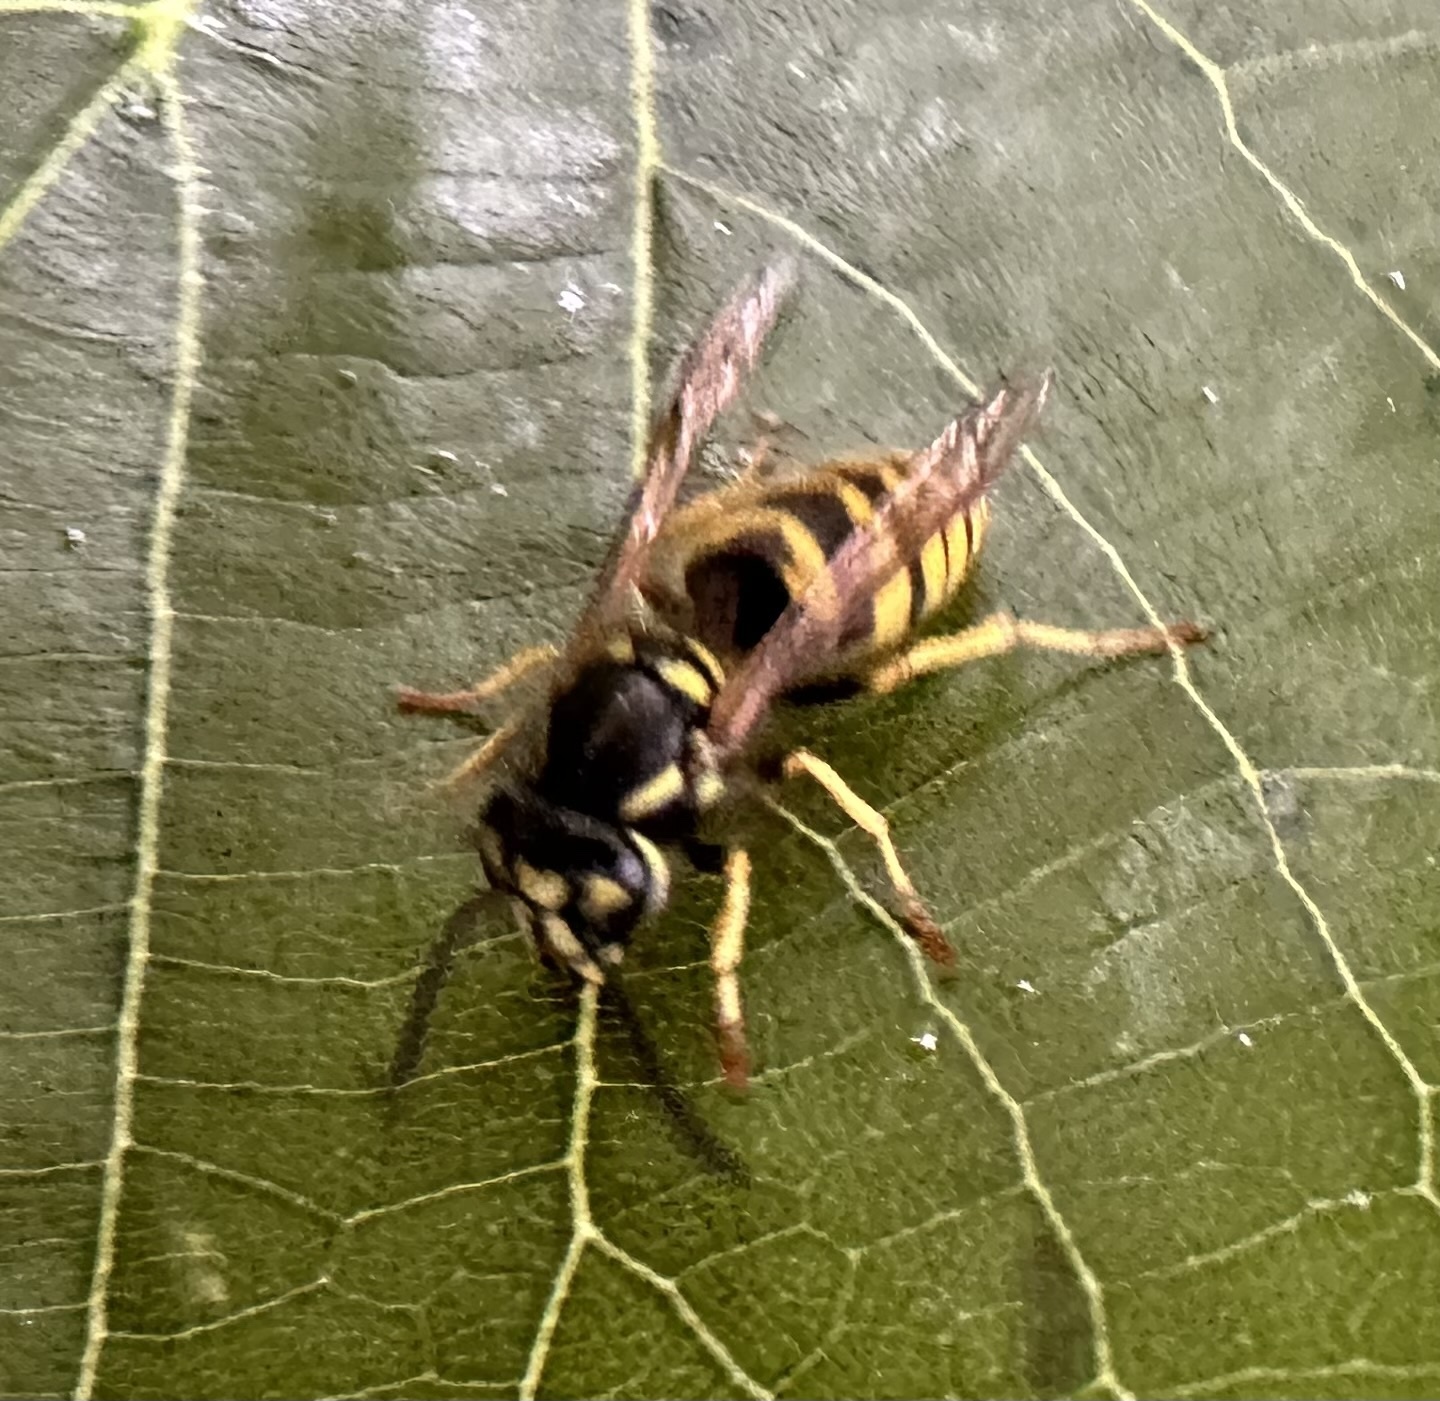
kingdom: Animalia
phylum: Arthropoda
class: Insecta
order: Hymenoptera
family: Vespidae
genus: Vespula
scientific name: Vespula vulgaris
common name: Common wasp
